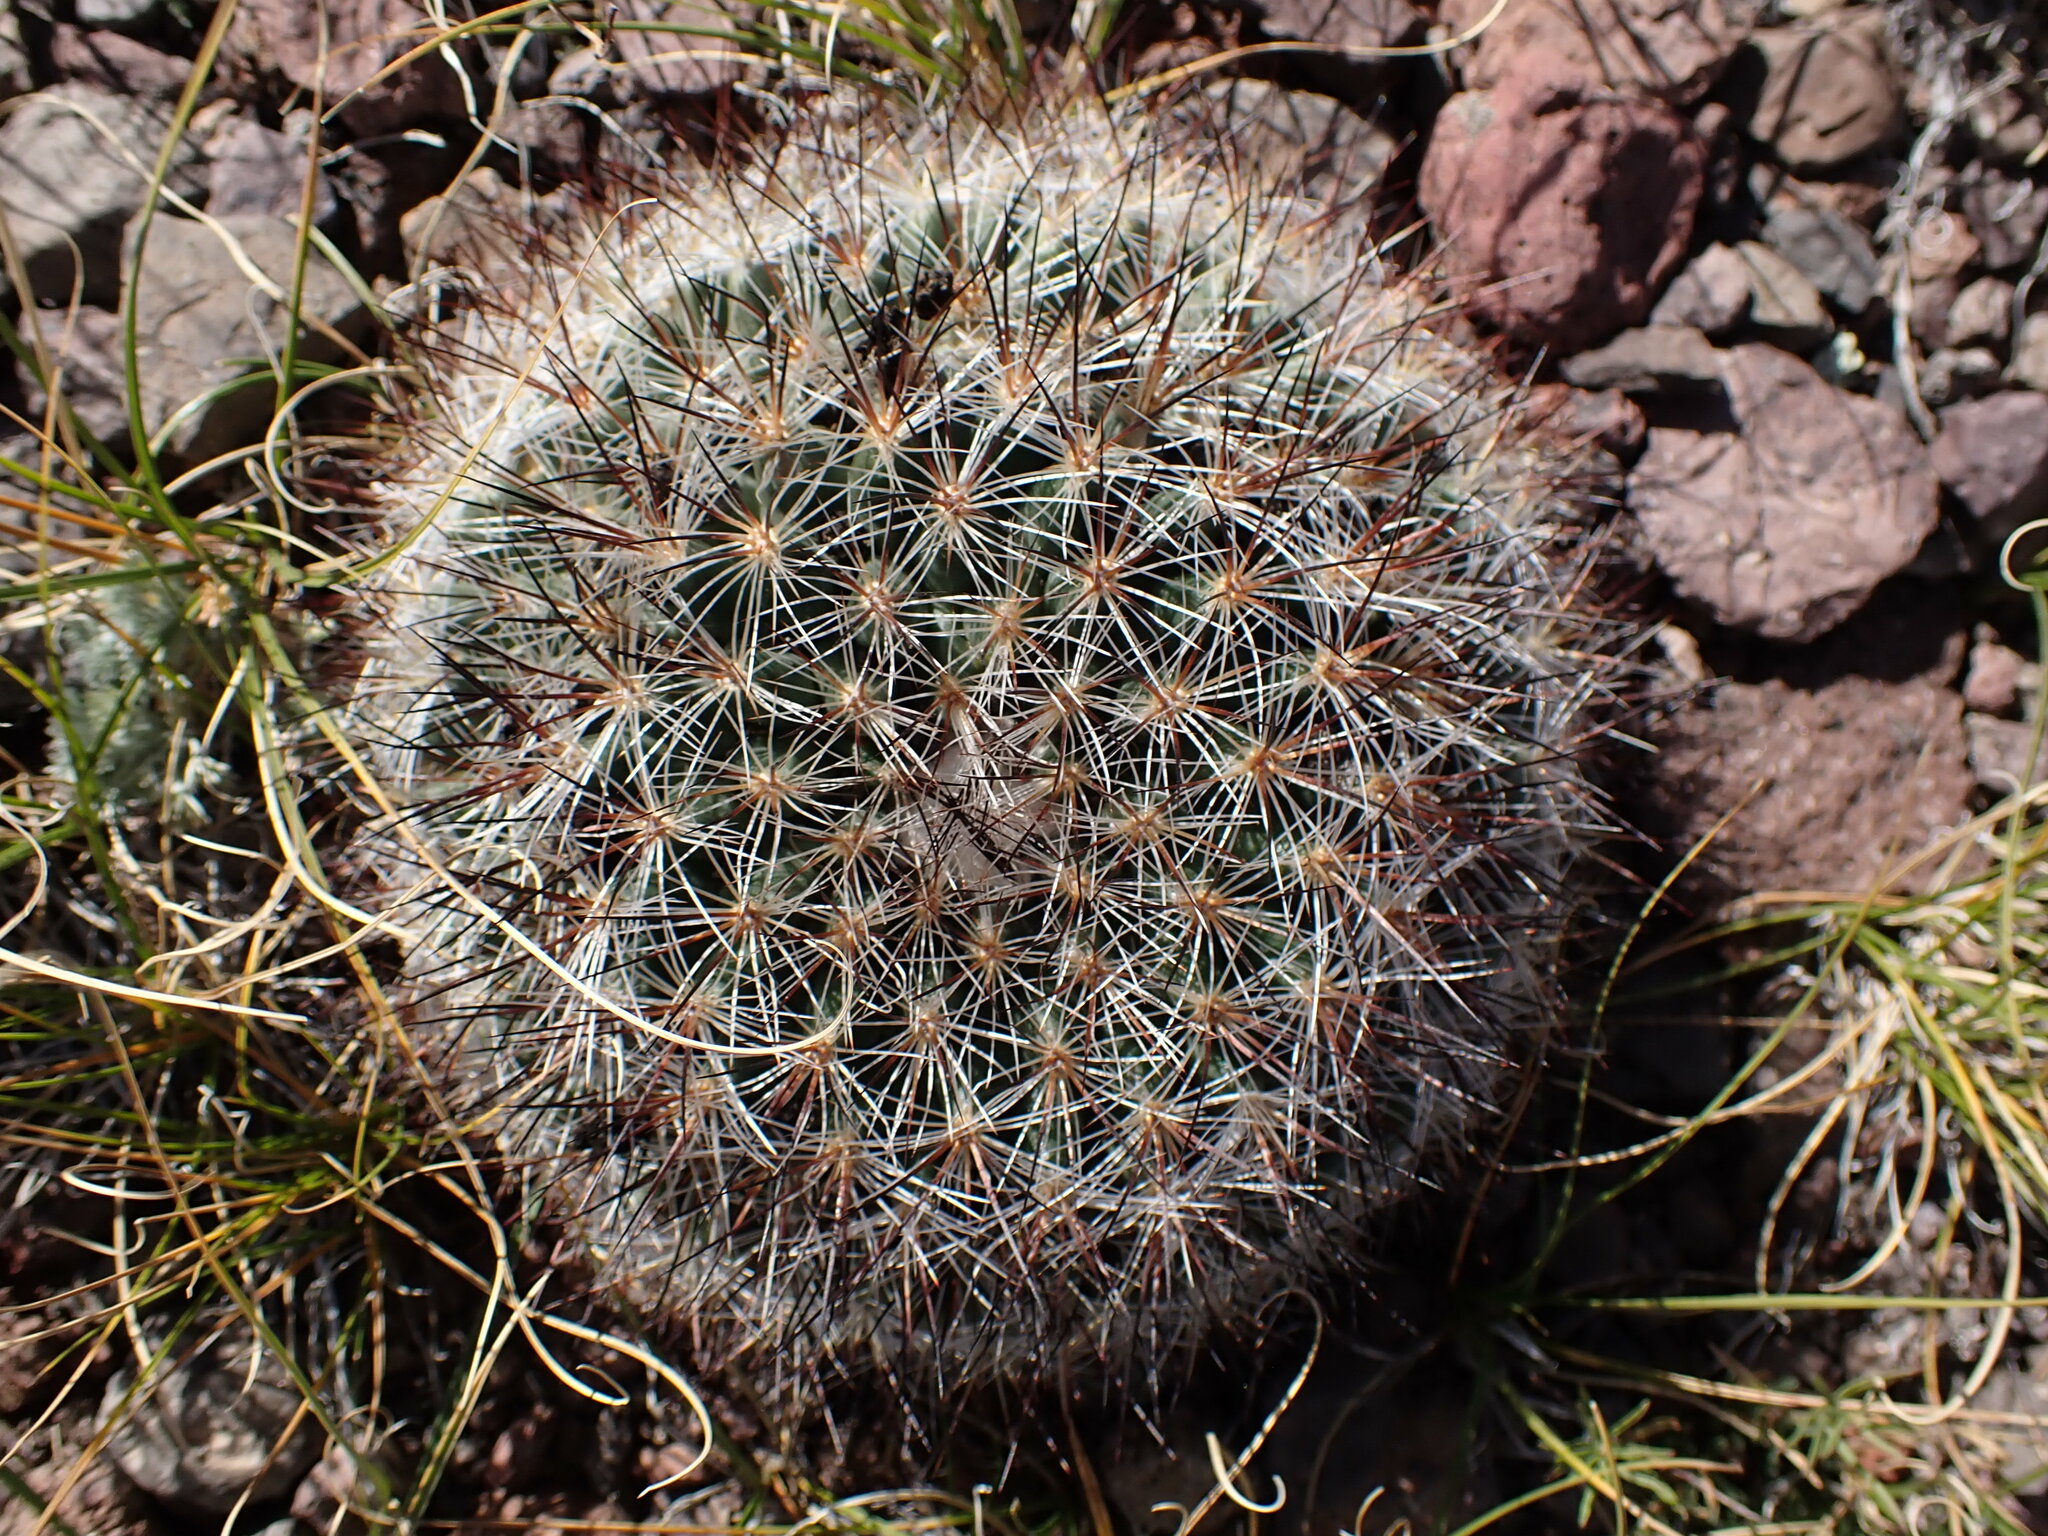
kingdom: Plantae
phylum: Tracheophyta
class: Magnoliopsida
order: Caryophyllales
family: Cactaceae
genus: Pediocactus
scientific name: Pediocactus simpsonii
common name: Simpson's hedgehog cactus
